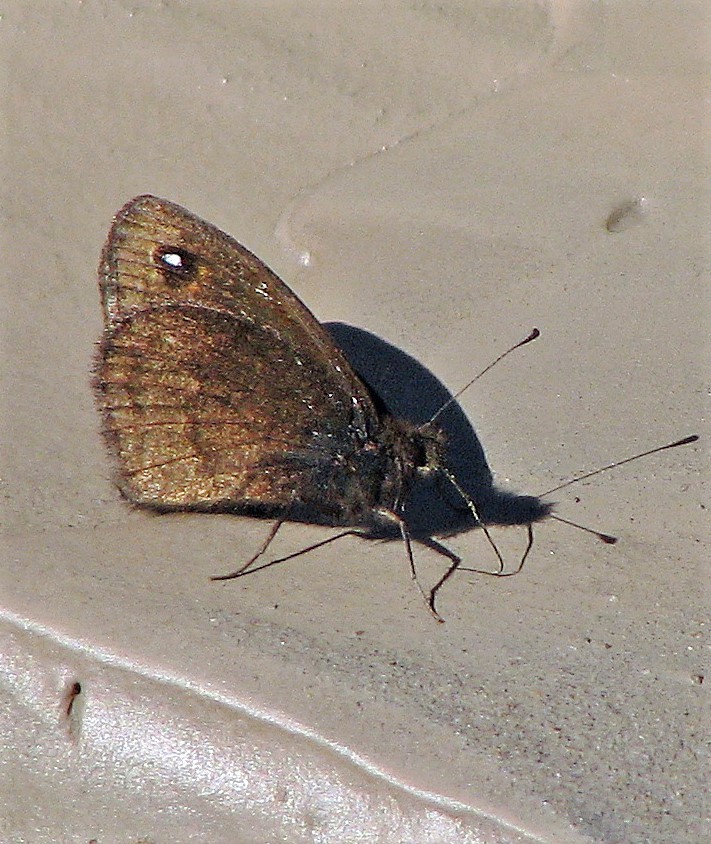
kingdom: Animalia
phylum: Arthropoda
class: Insecta
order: Lepidoptera
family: Nymphalidae
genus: Faunula
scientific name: Faunula leucoglene
